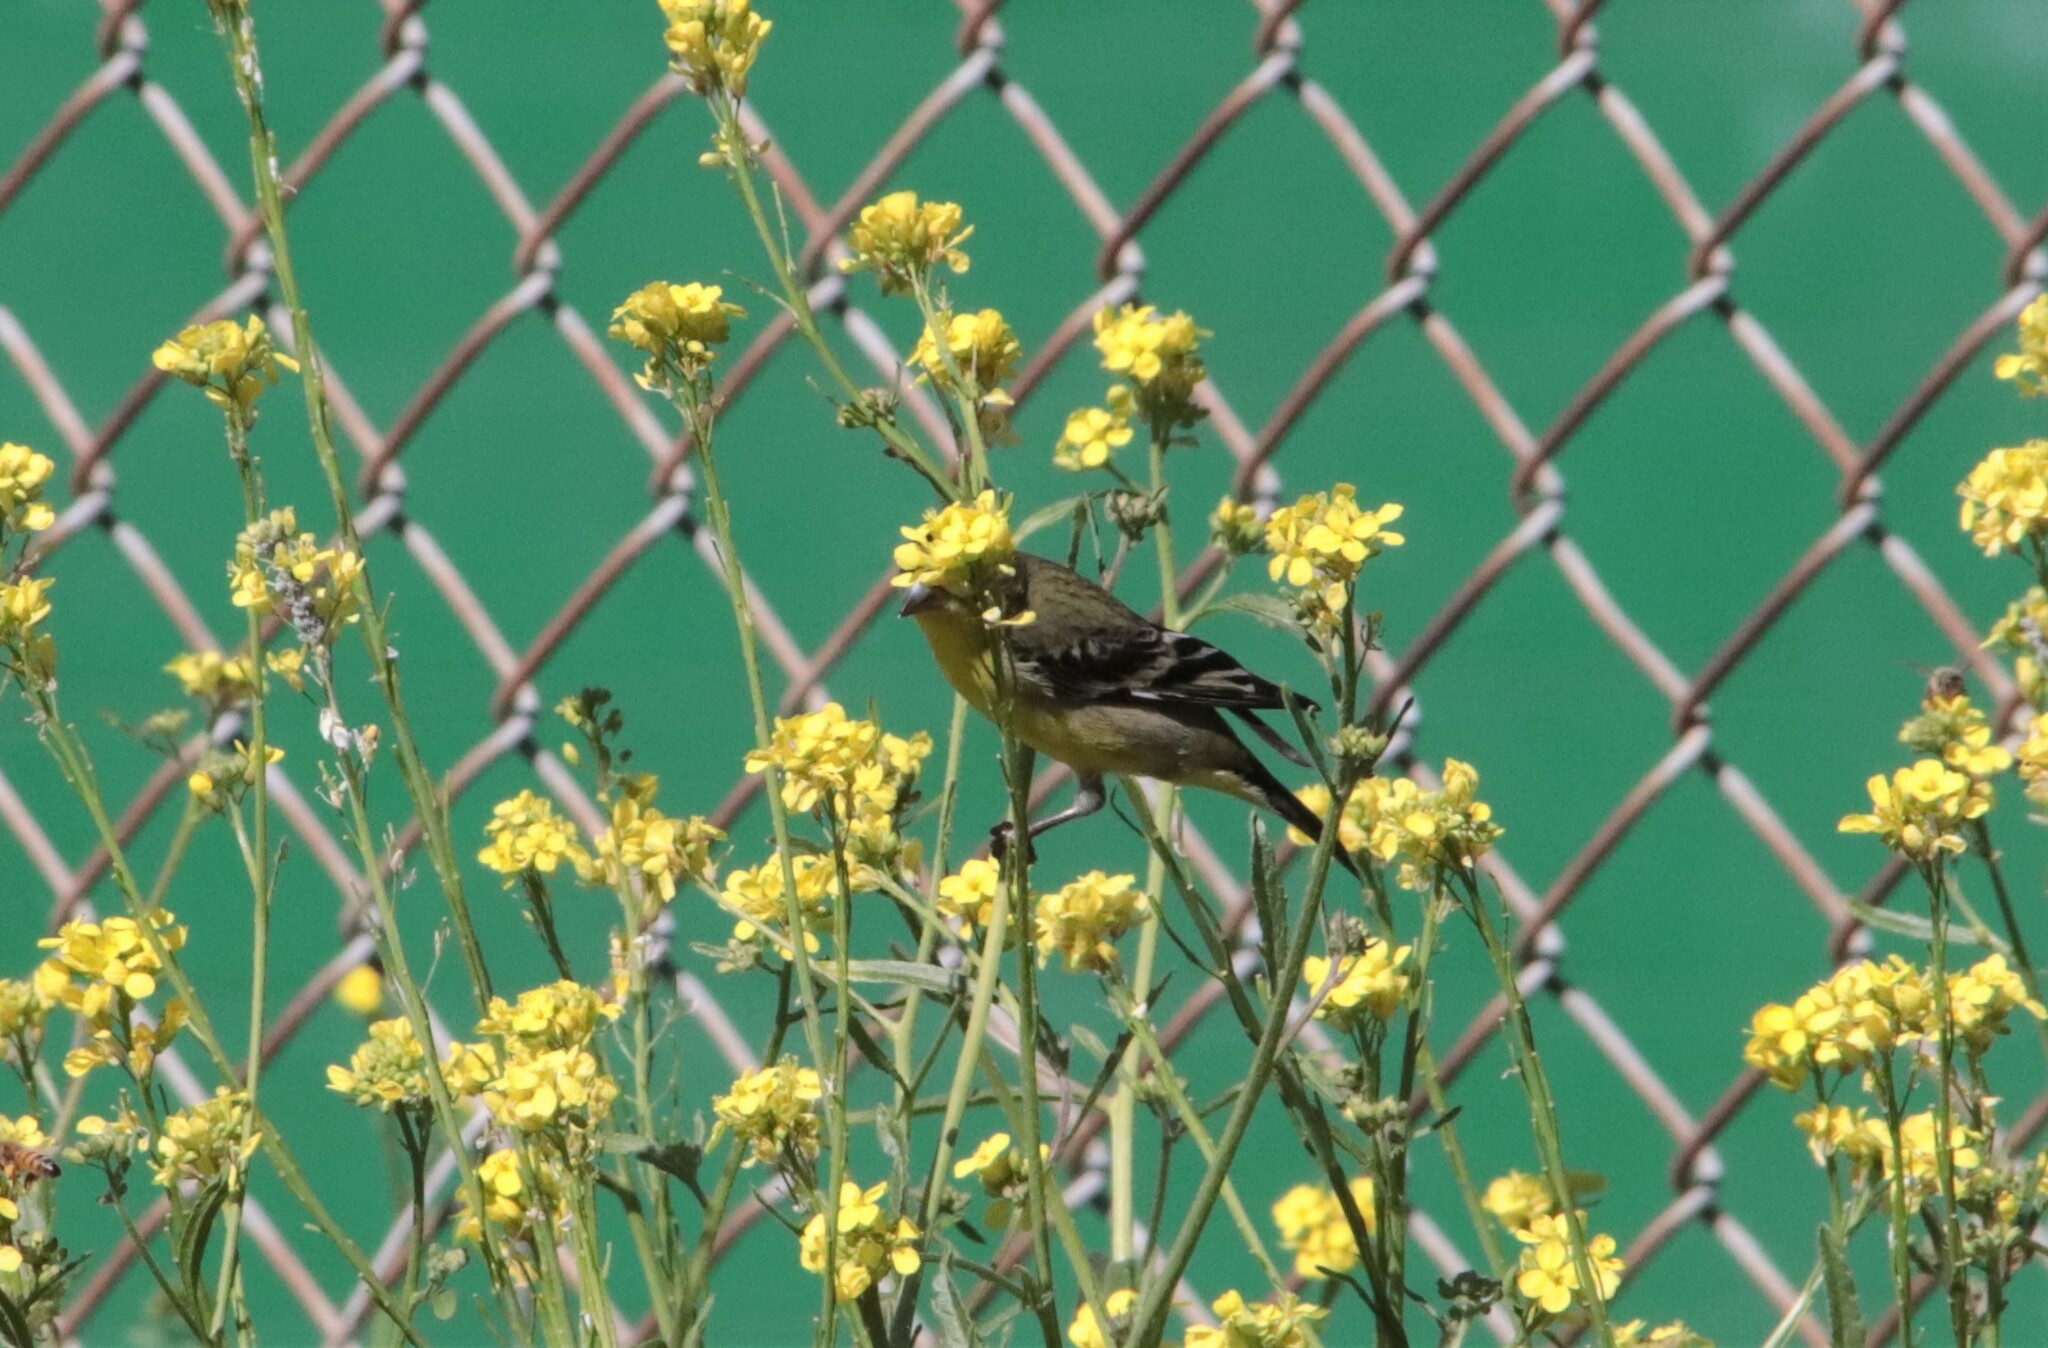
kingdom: Animalia
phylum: Chordata
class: Aves
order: Passeriformes
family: Fringillidae
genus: Spinus
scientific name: Spinus psaltria
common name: Lesser goldfinch
